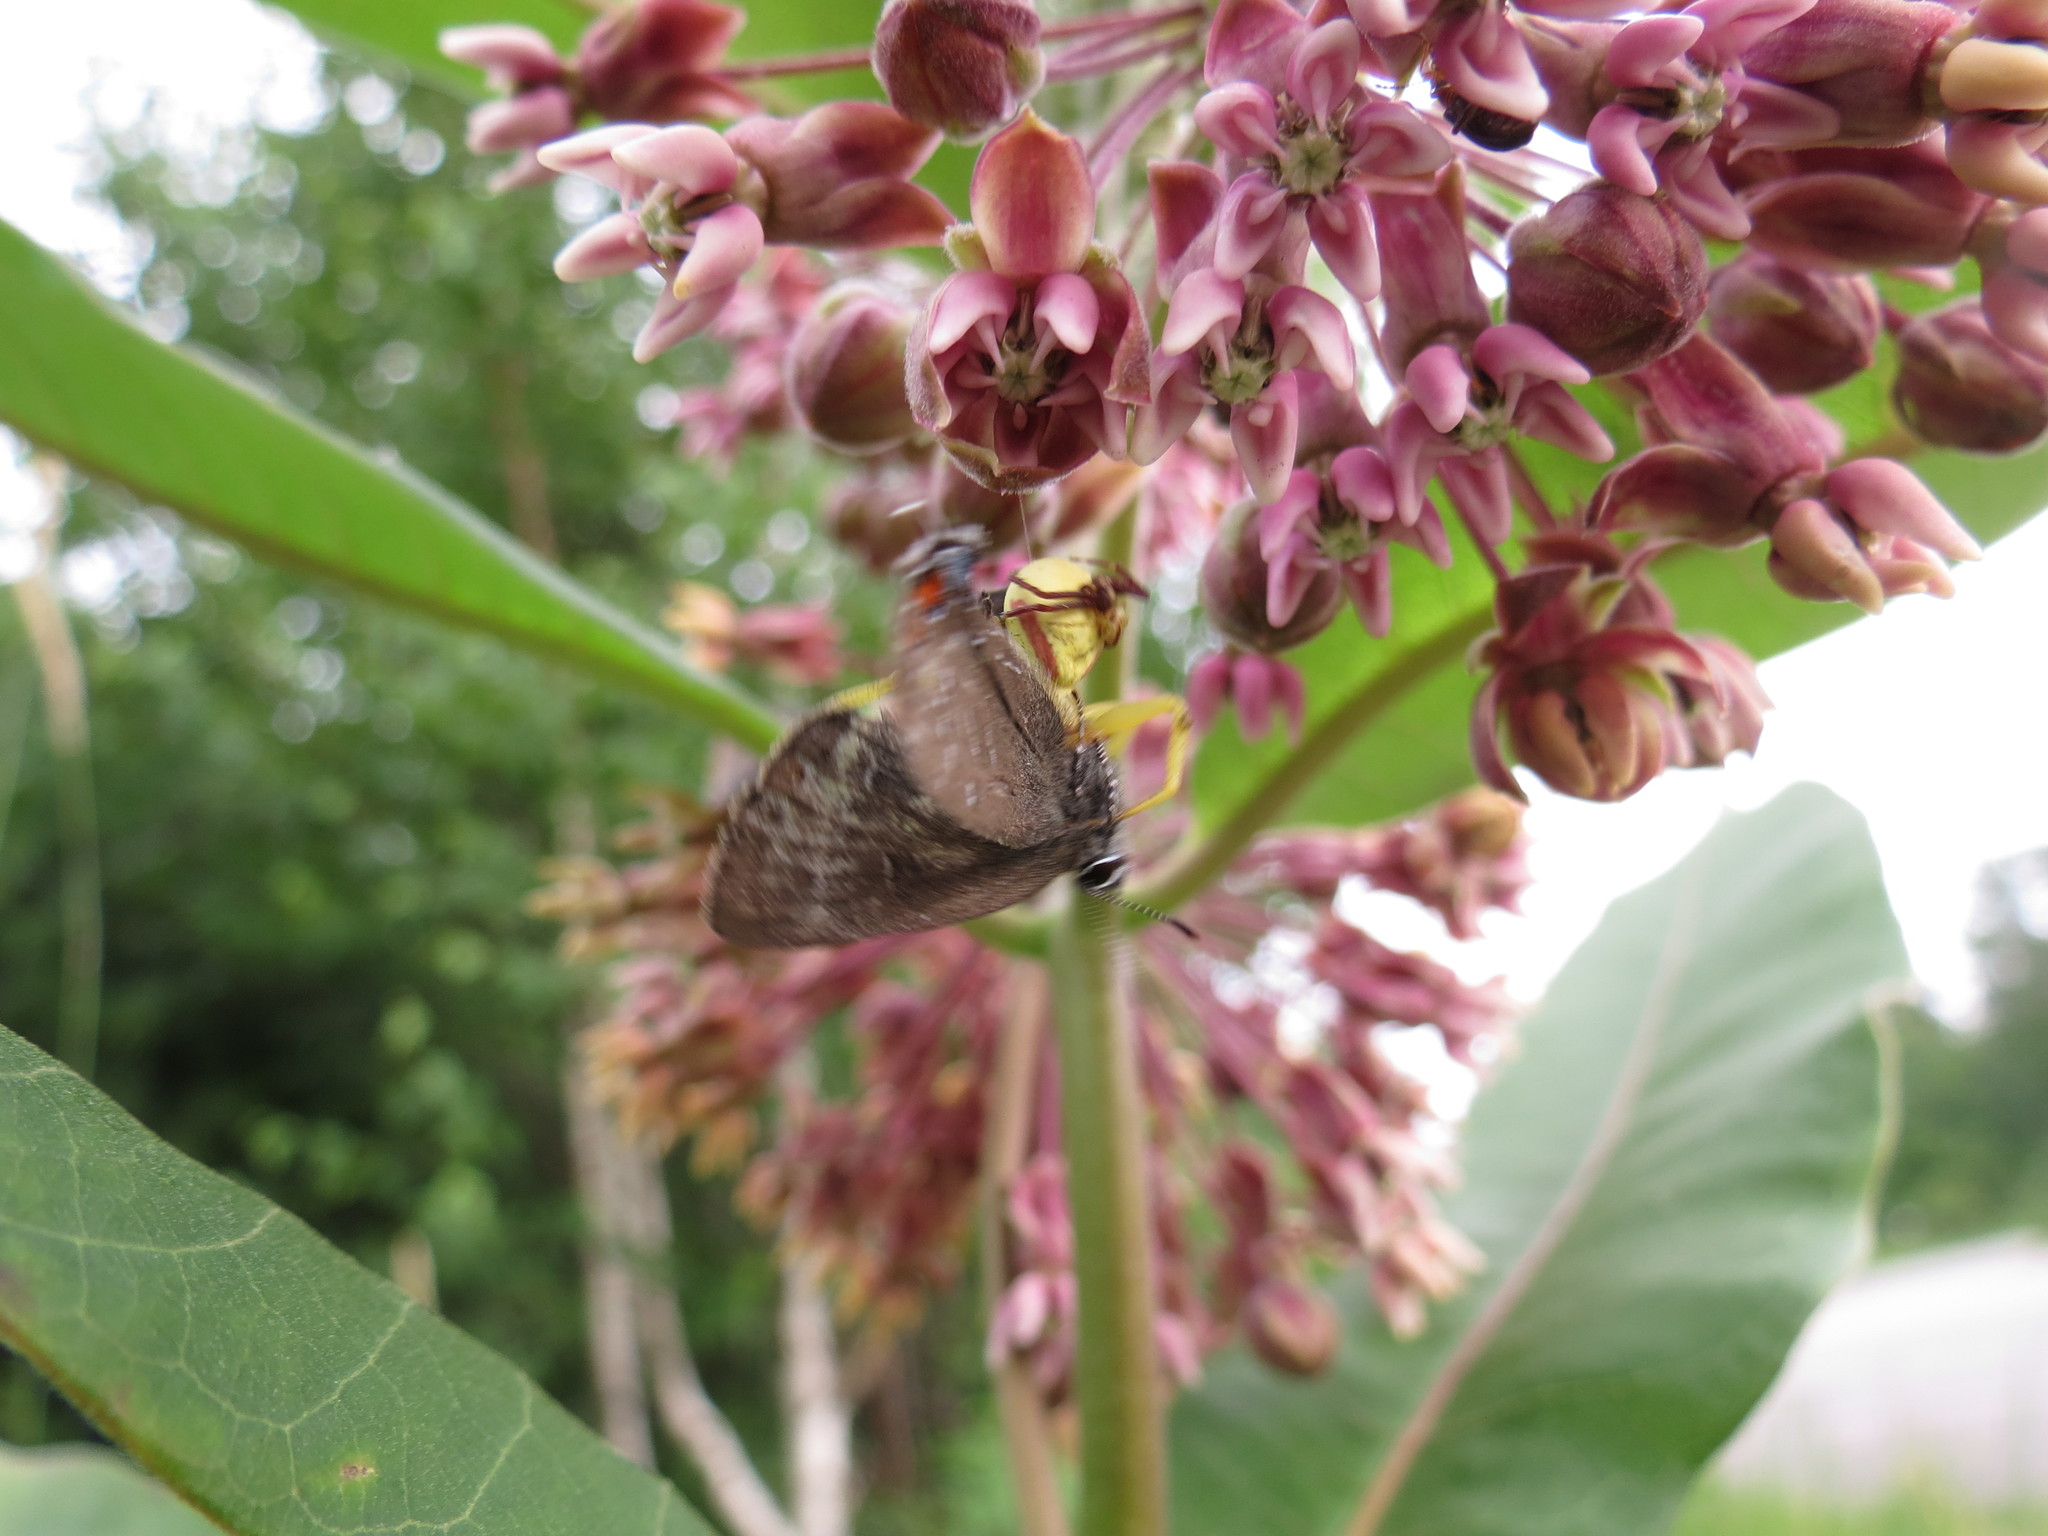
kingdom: Animalia
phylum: Arthropoda
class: Arachnida
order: Araneae
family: Thomisidae
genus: Misumena
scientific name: Misumena vatia
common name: Goldenrod crab spider
